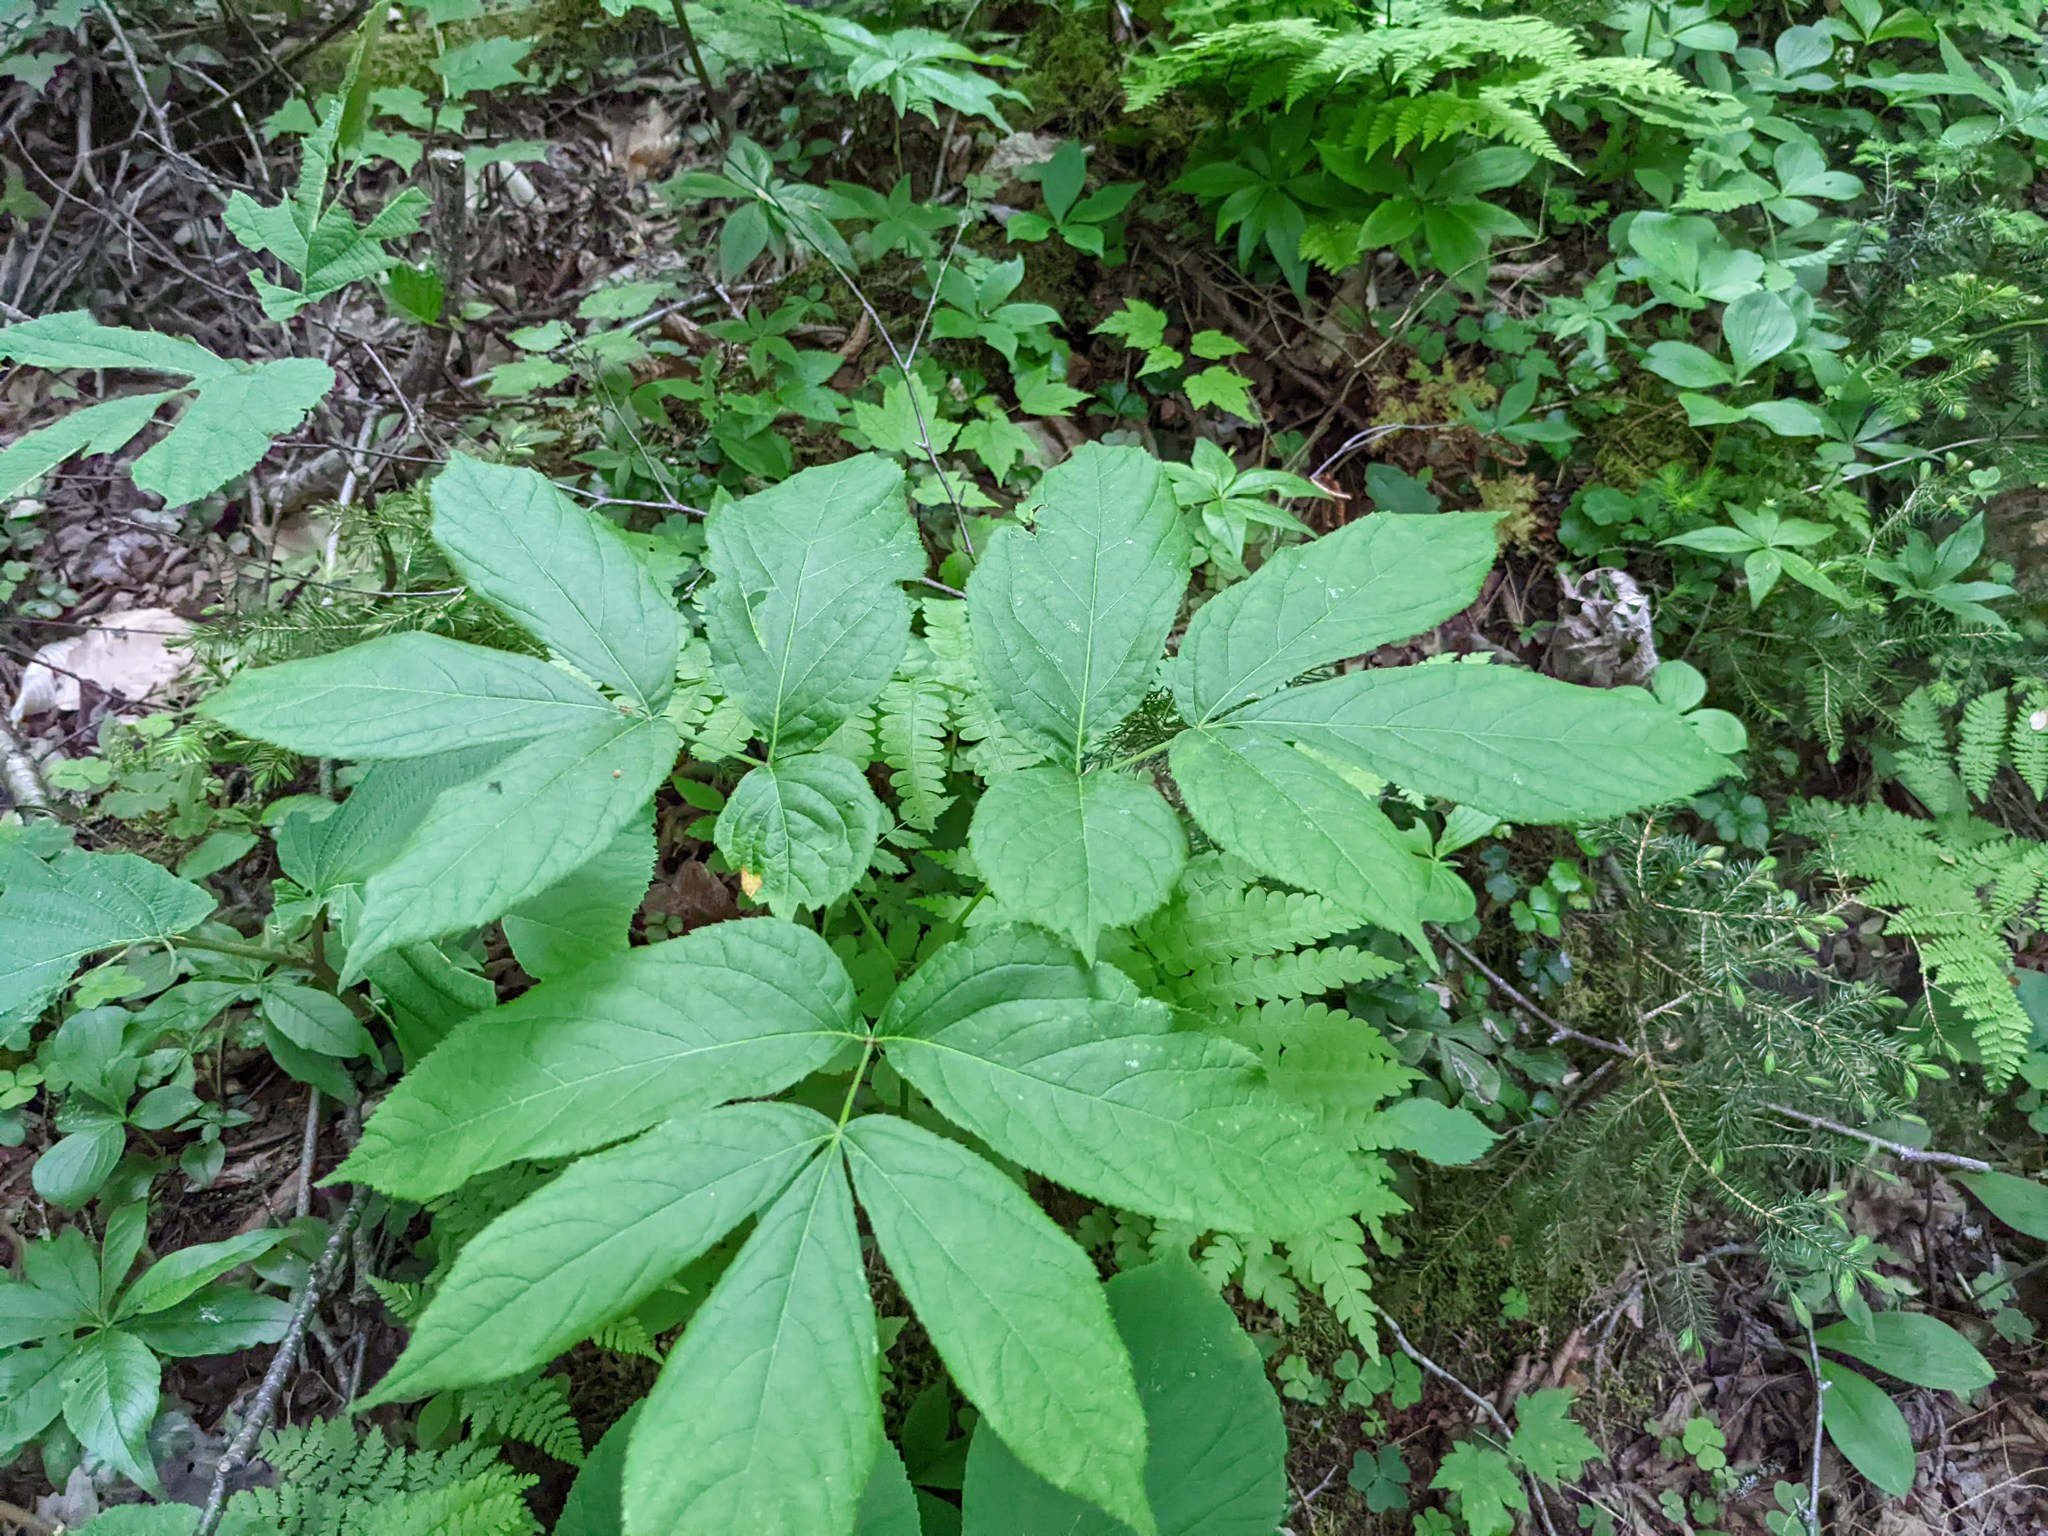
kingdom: Plantae
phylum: Tracheophyta
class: Magnoliopsida
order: Apiales
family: Araliaceae
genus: Aralia
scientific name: Aralia nudicaulis
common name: Wild sarsaparilla
